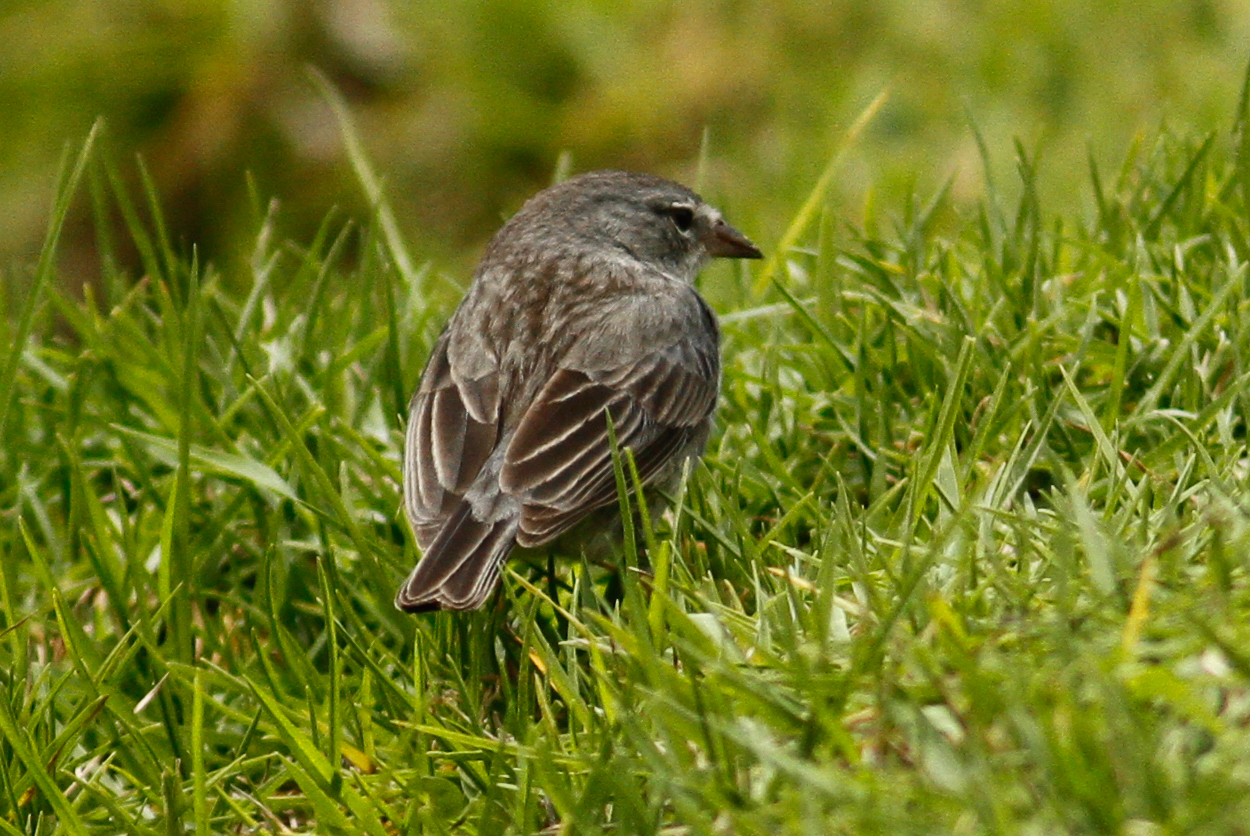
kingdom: Animalia
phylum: Chordata
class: Aves
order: Passeriformes
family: Thraupidae
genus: Geospizopsis
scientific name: Geospizopsis plebejus
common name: Ash-breasted sierra-finch
